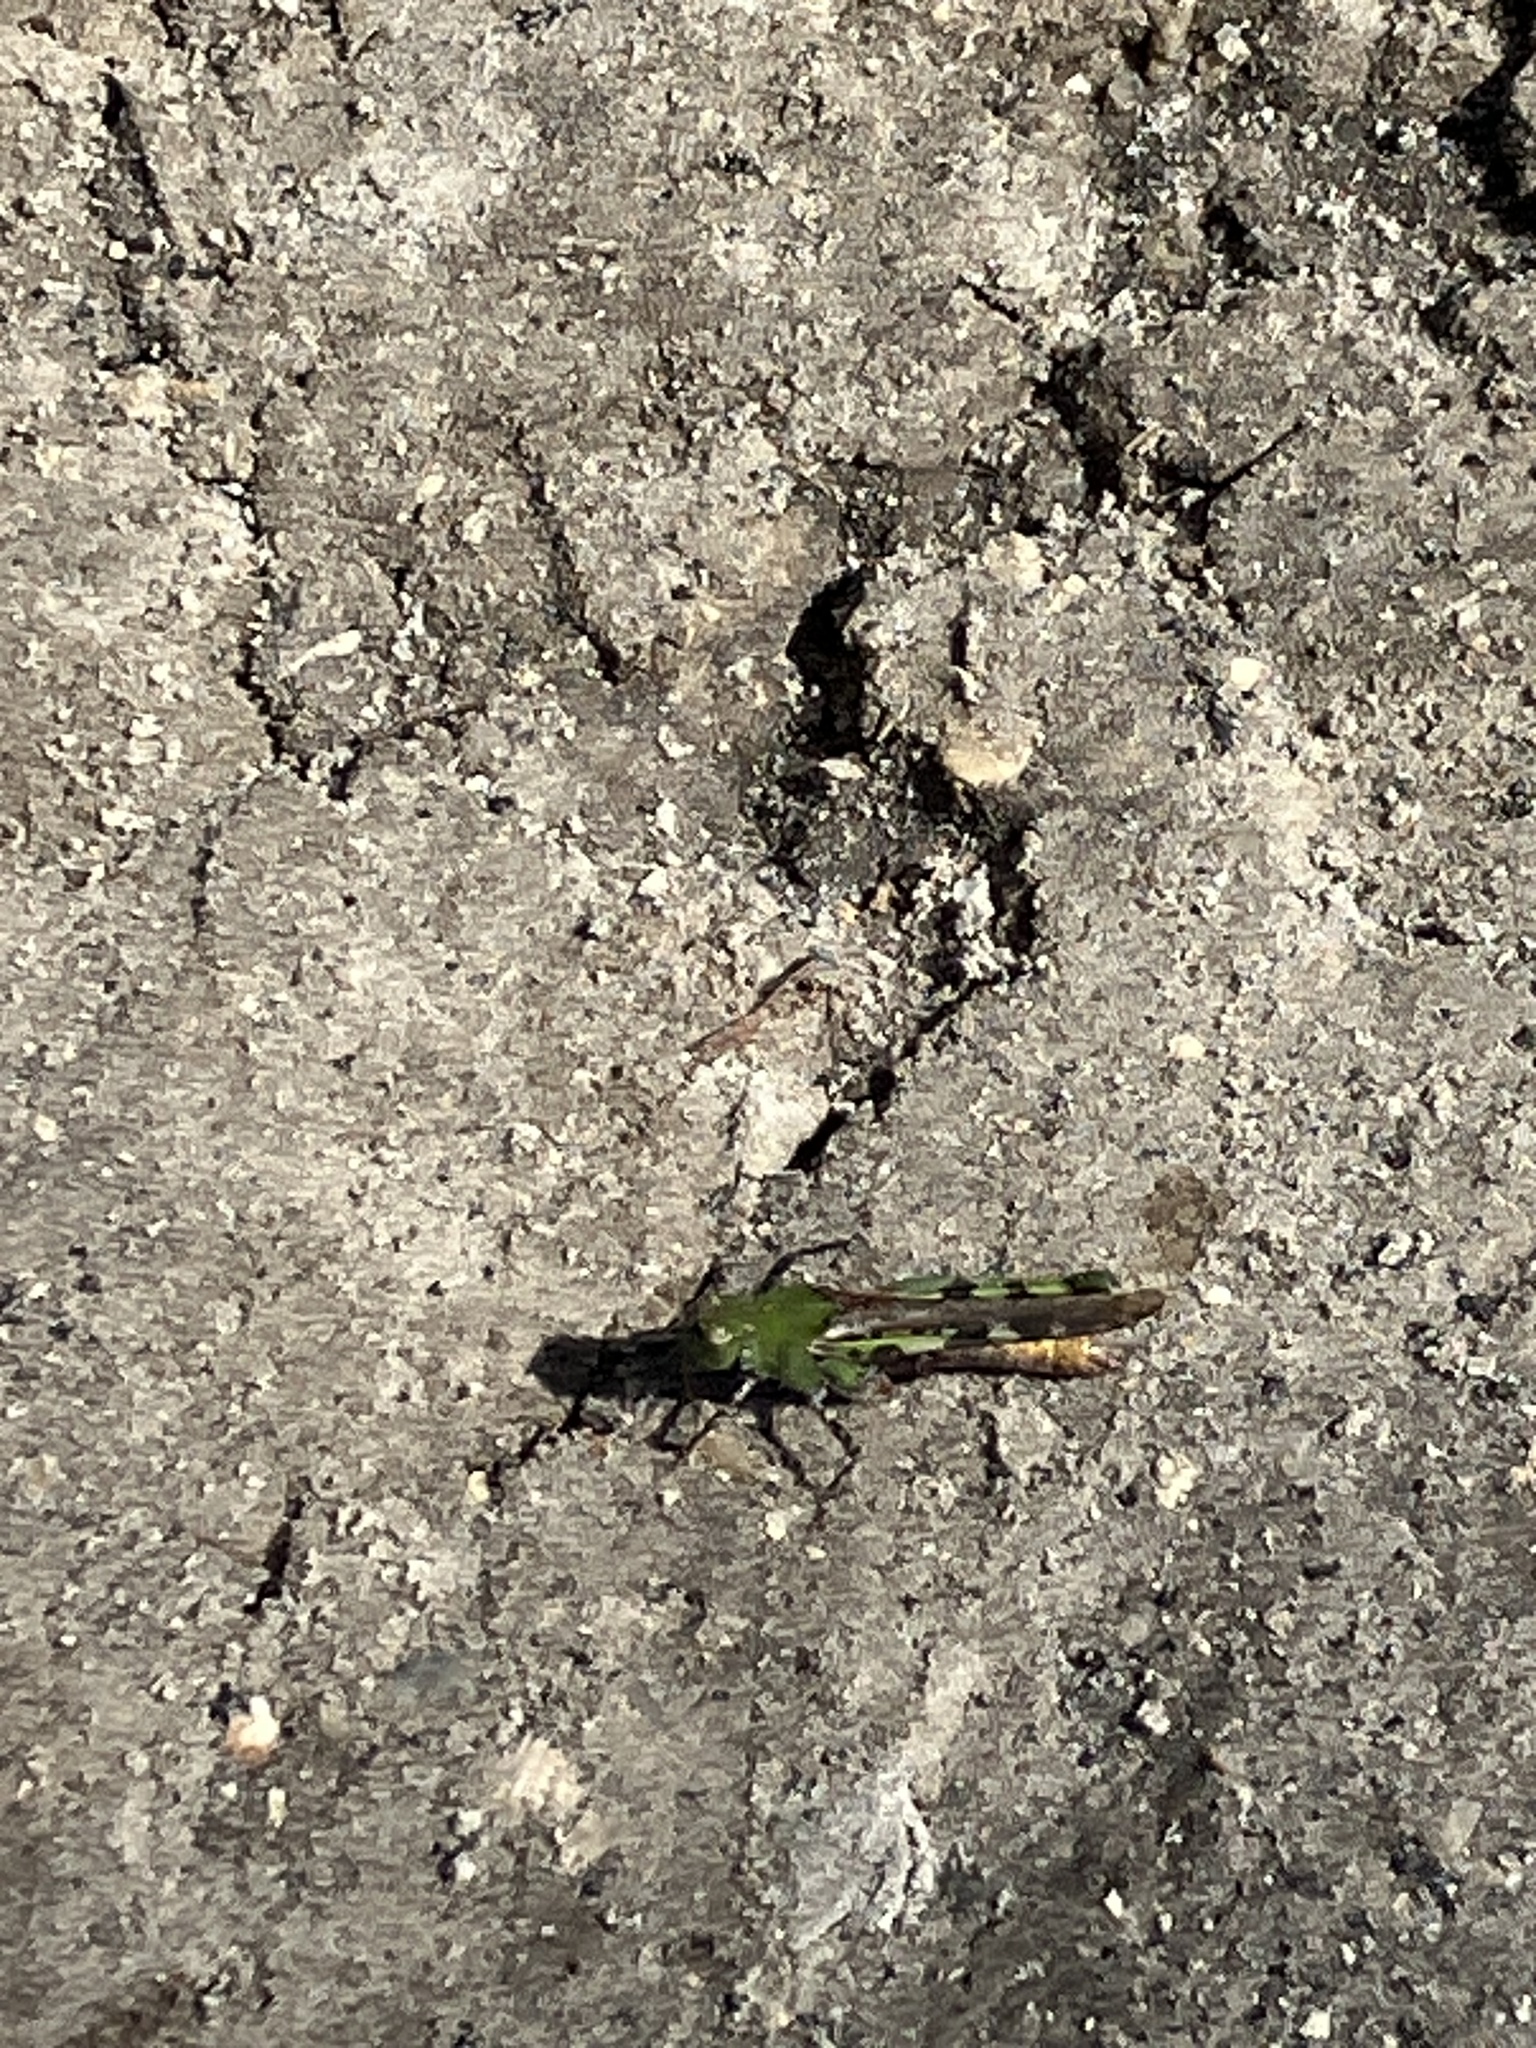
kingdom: Animalia
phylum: Arthropoda
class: Insecta
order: Orthoptera
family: Acrididae
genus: Chortophaga
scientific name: Chortophaga australior
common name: Southern green-striped grasshopper
